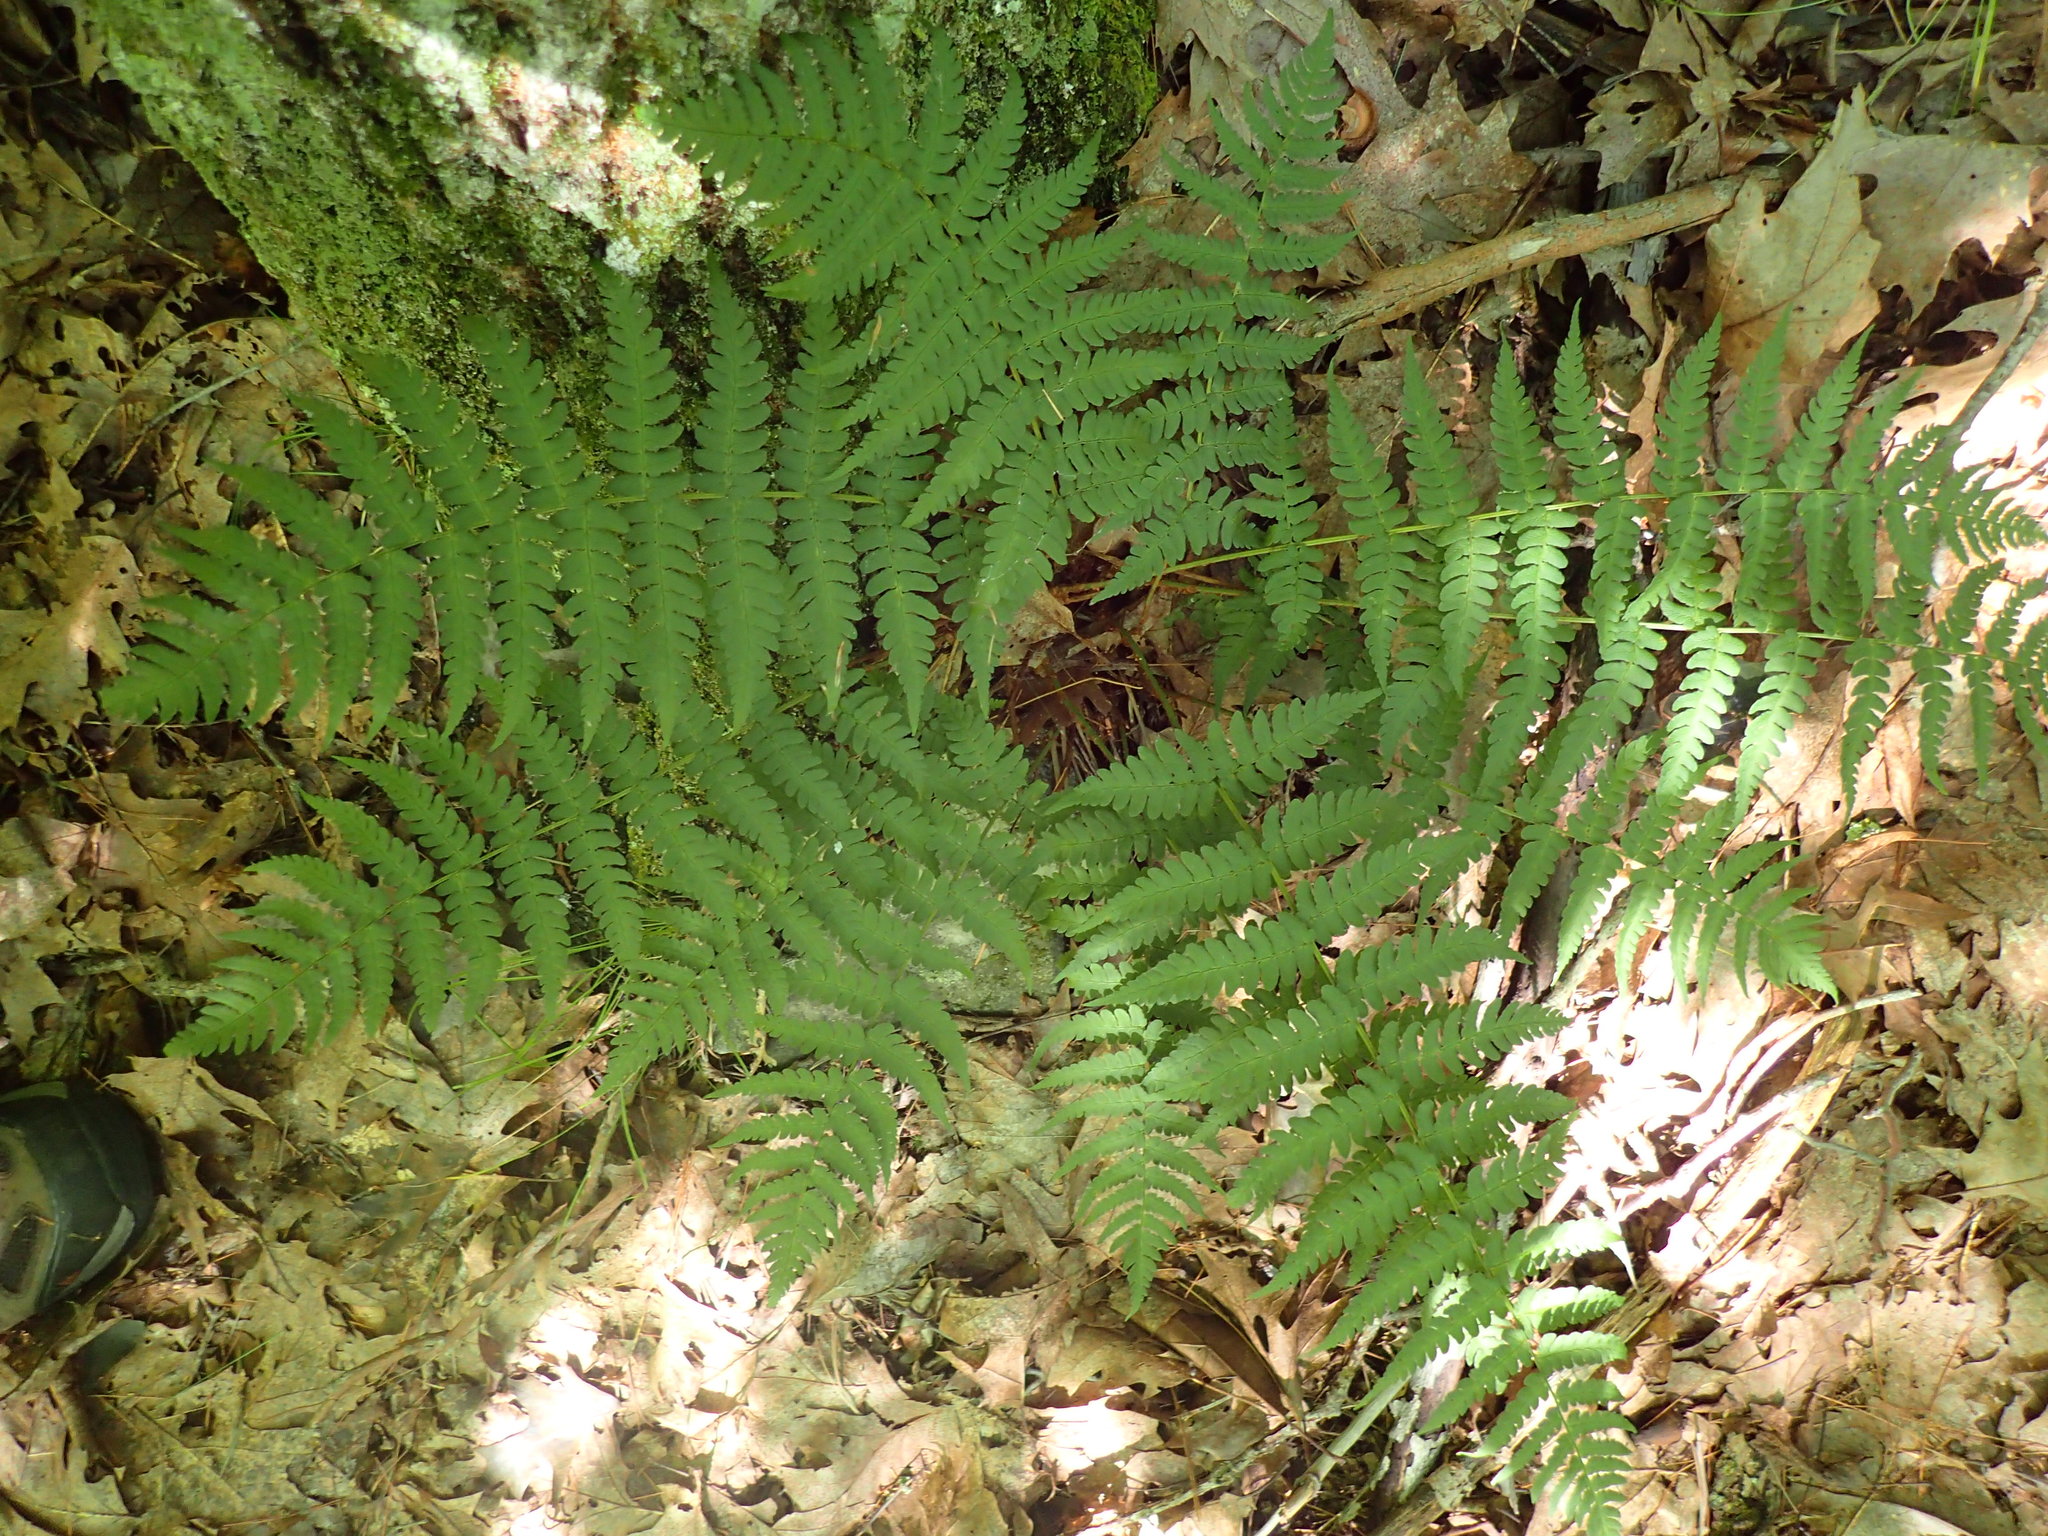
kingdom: Plantae
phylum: Tracheophyta
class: Polypodiopsida
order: Polypodiales
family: Dryopteridaceae
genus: Dryopteris
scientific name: Dryopteris marginalis
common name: Marginal wood fern
